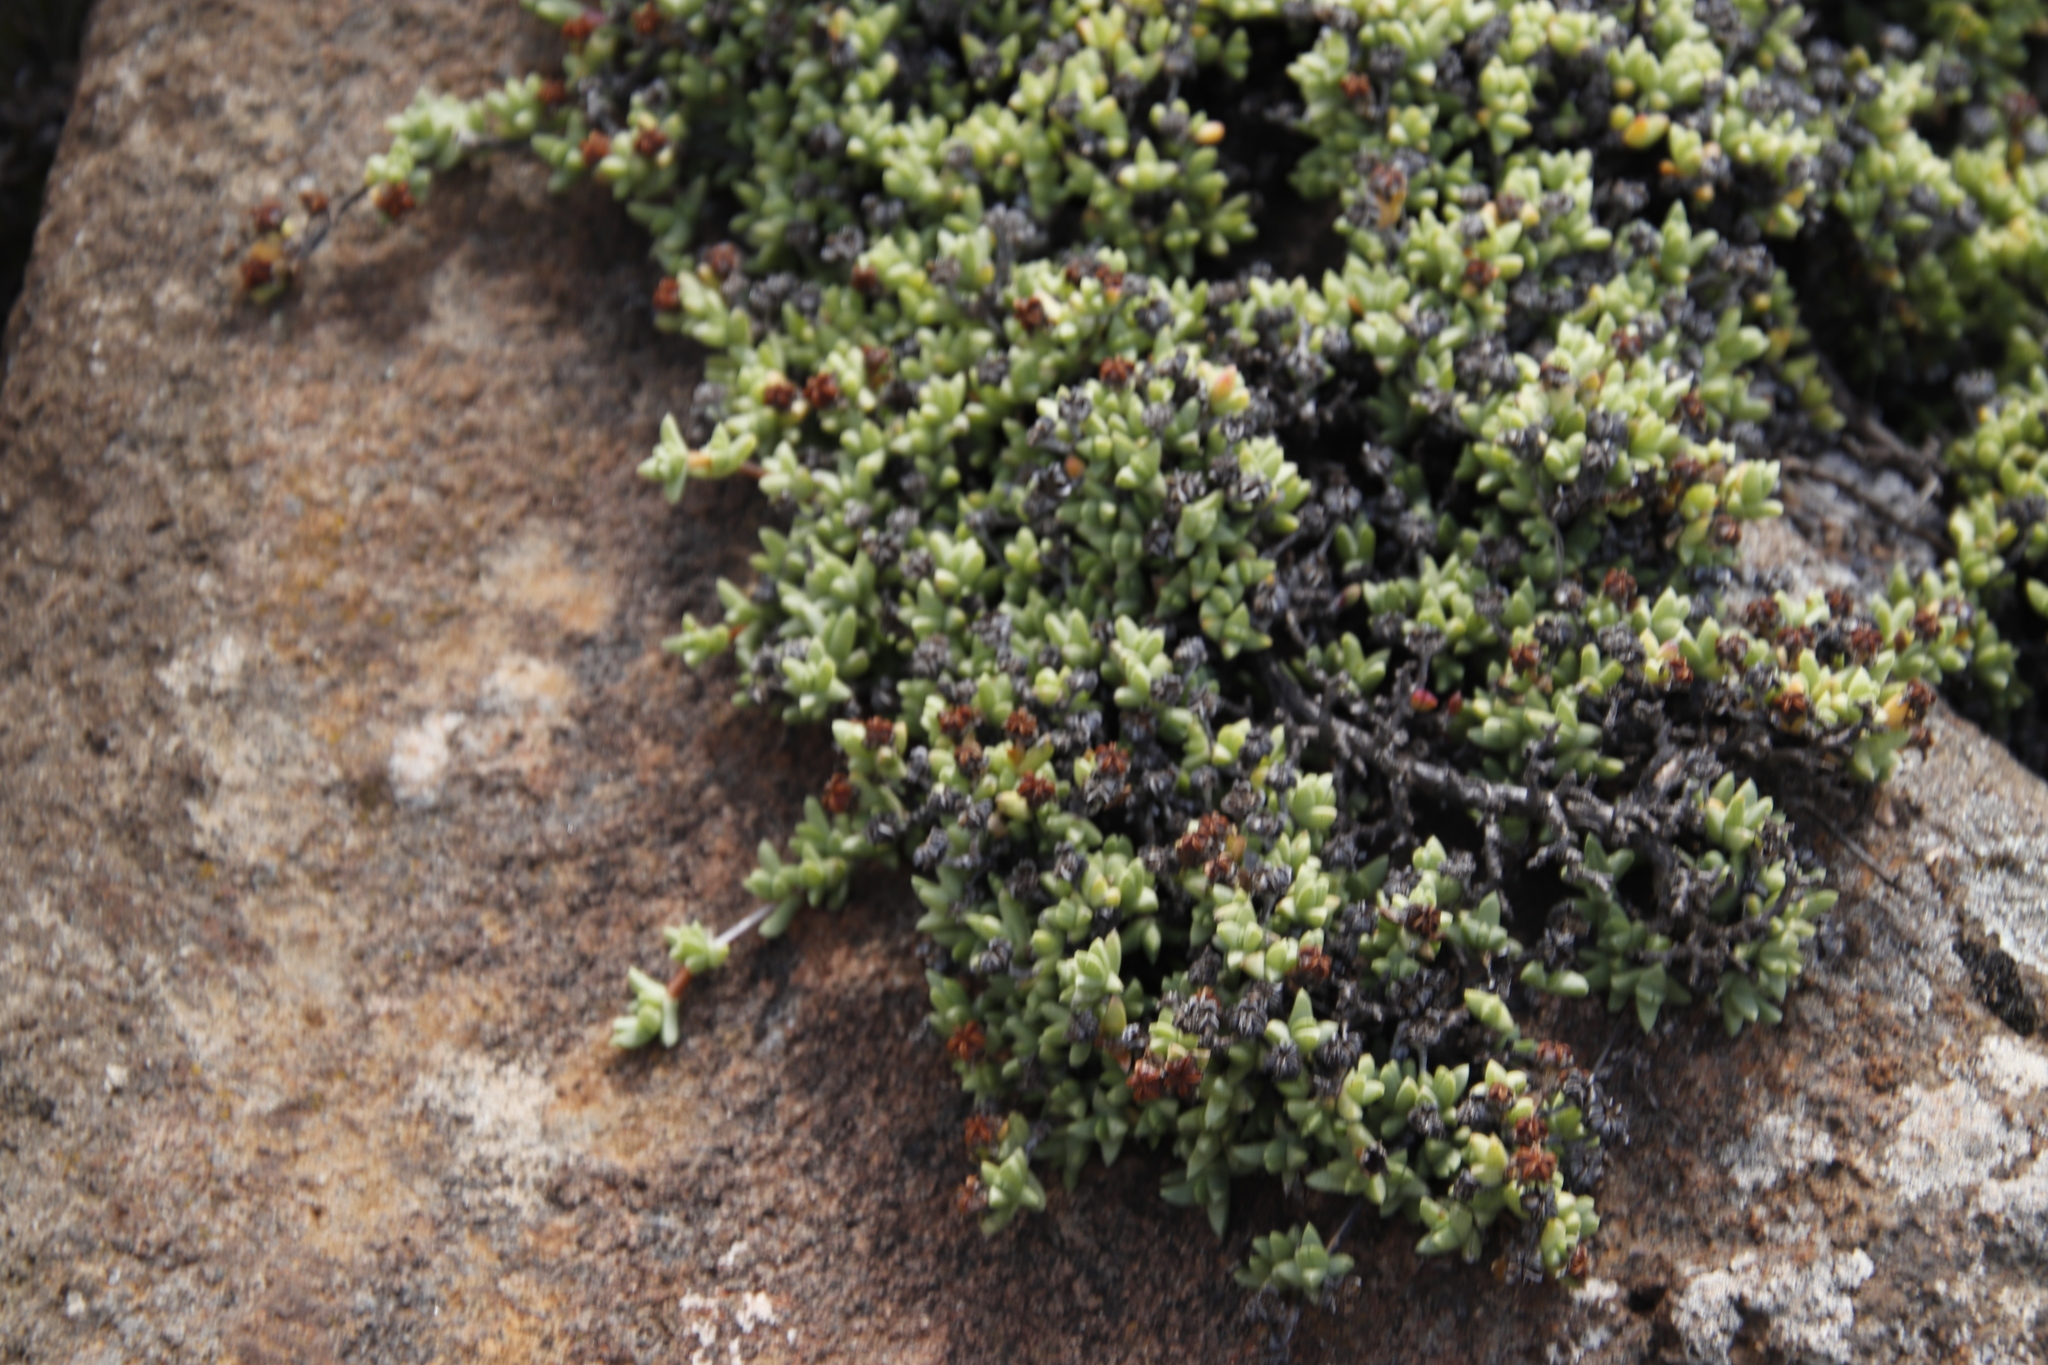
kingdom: Plantae
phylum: Tracheophyta
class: Magnoliopsida
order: Caryophyllales
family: Aizoaceae
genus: Ruschia
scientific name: Ruschia putterillii
